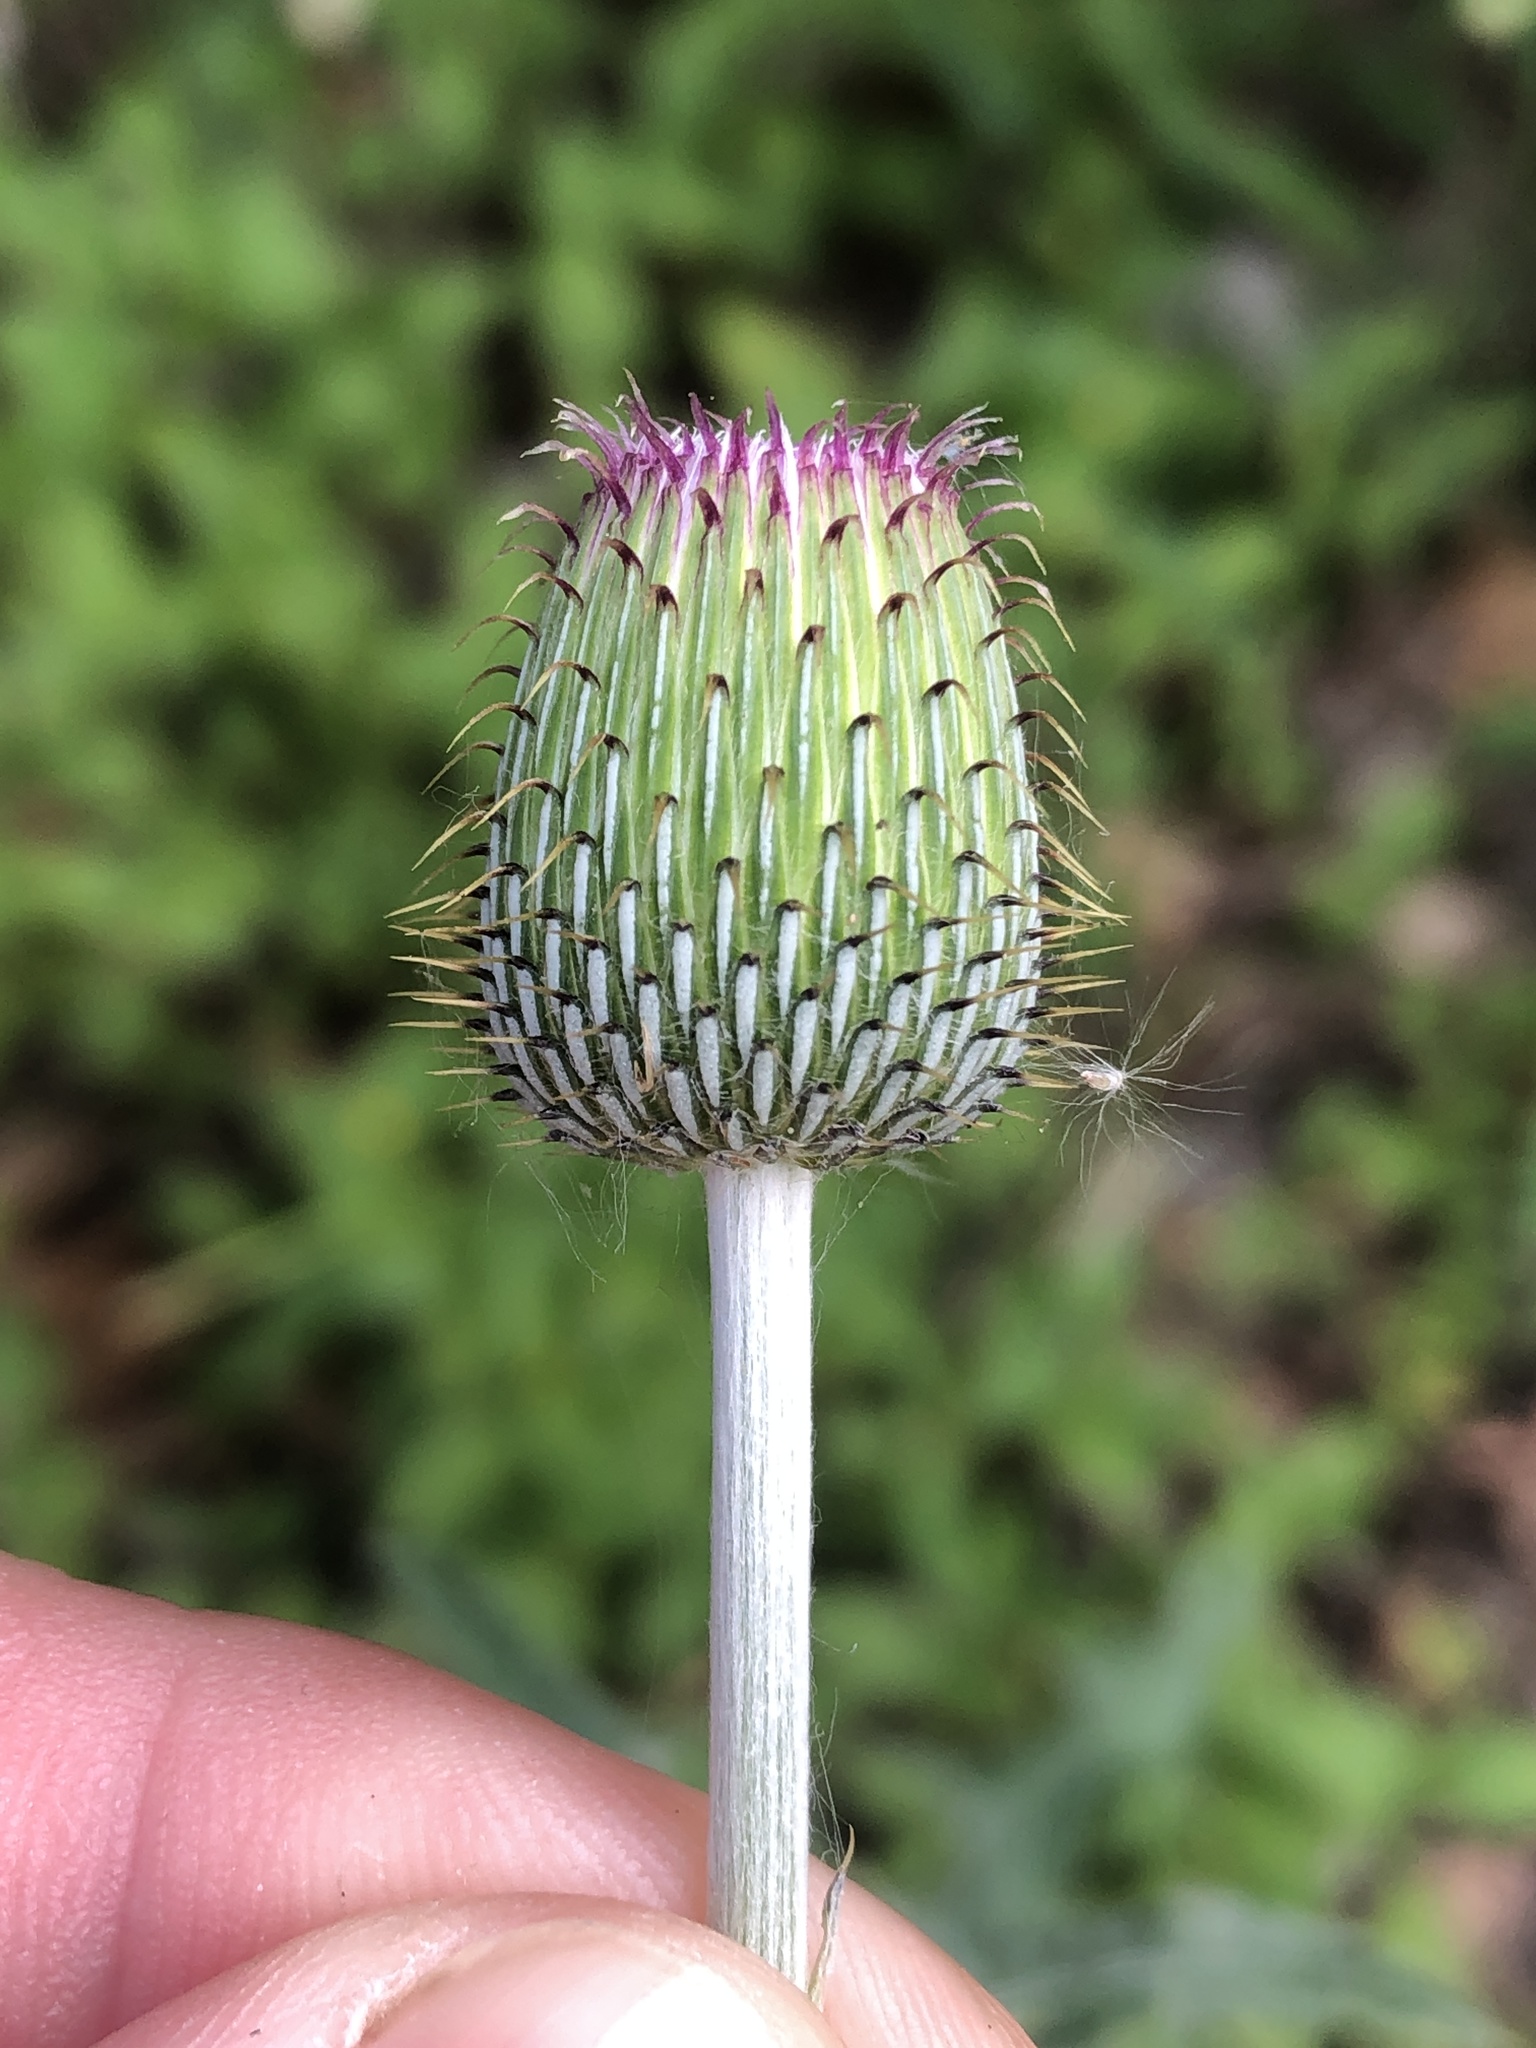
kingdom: Plantae
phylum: Tracheophyta
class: Magnoliopsida
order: Asterales
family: Asteraceae
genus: Cirsium
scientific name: Cirsium texanum
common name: Texas purple thistle
